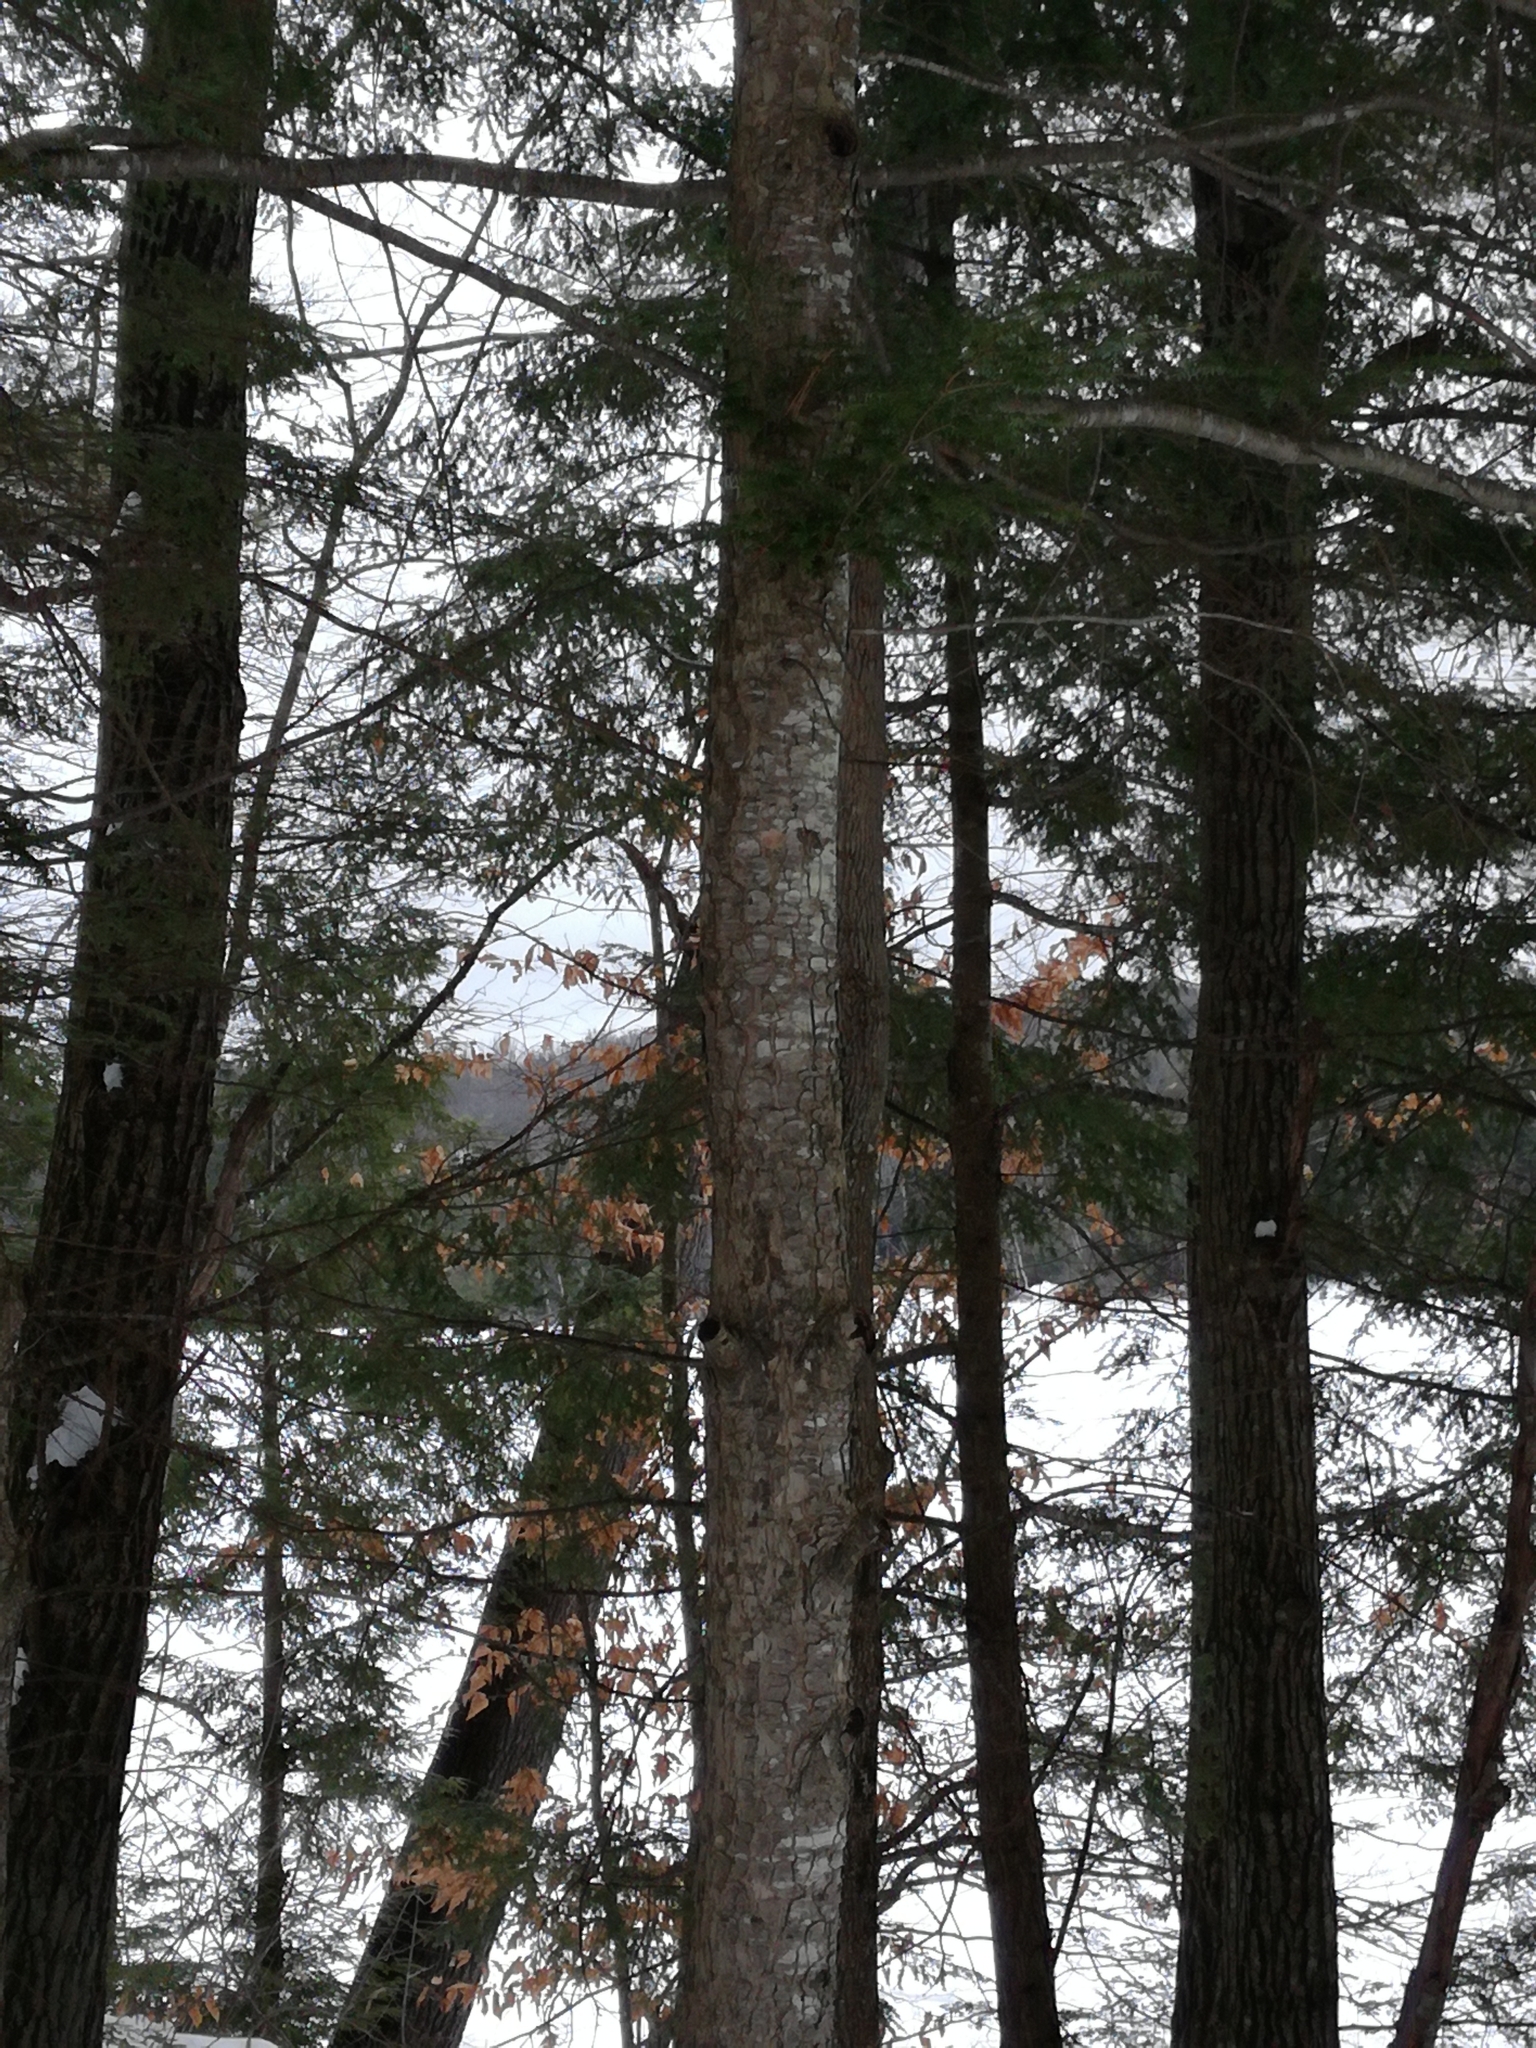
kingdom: Plantae
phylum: Tracheophyta
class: Pinopsida
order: Pinales
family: Pinaceae
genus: Tsuga
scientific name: Tsuga canadensis
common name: Eastern hemlock
